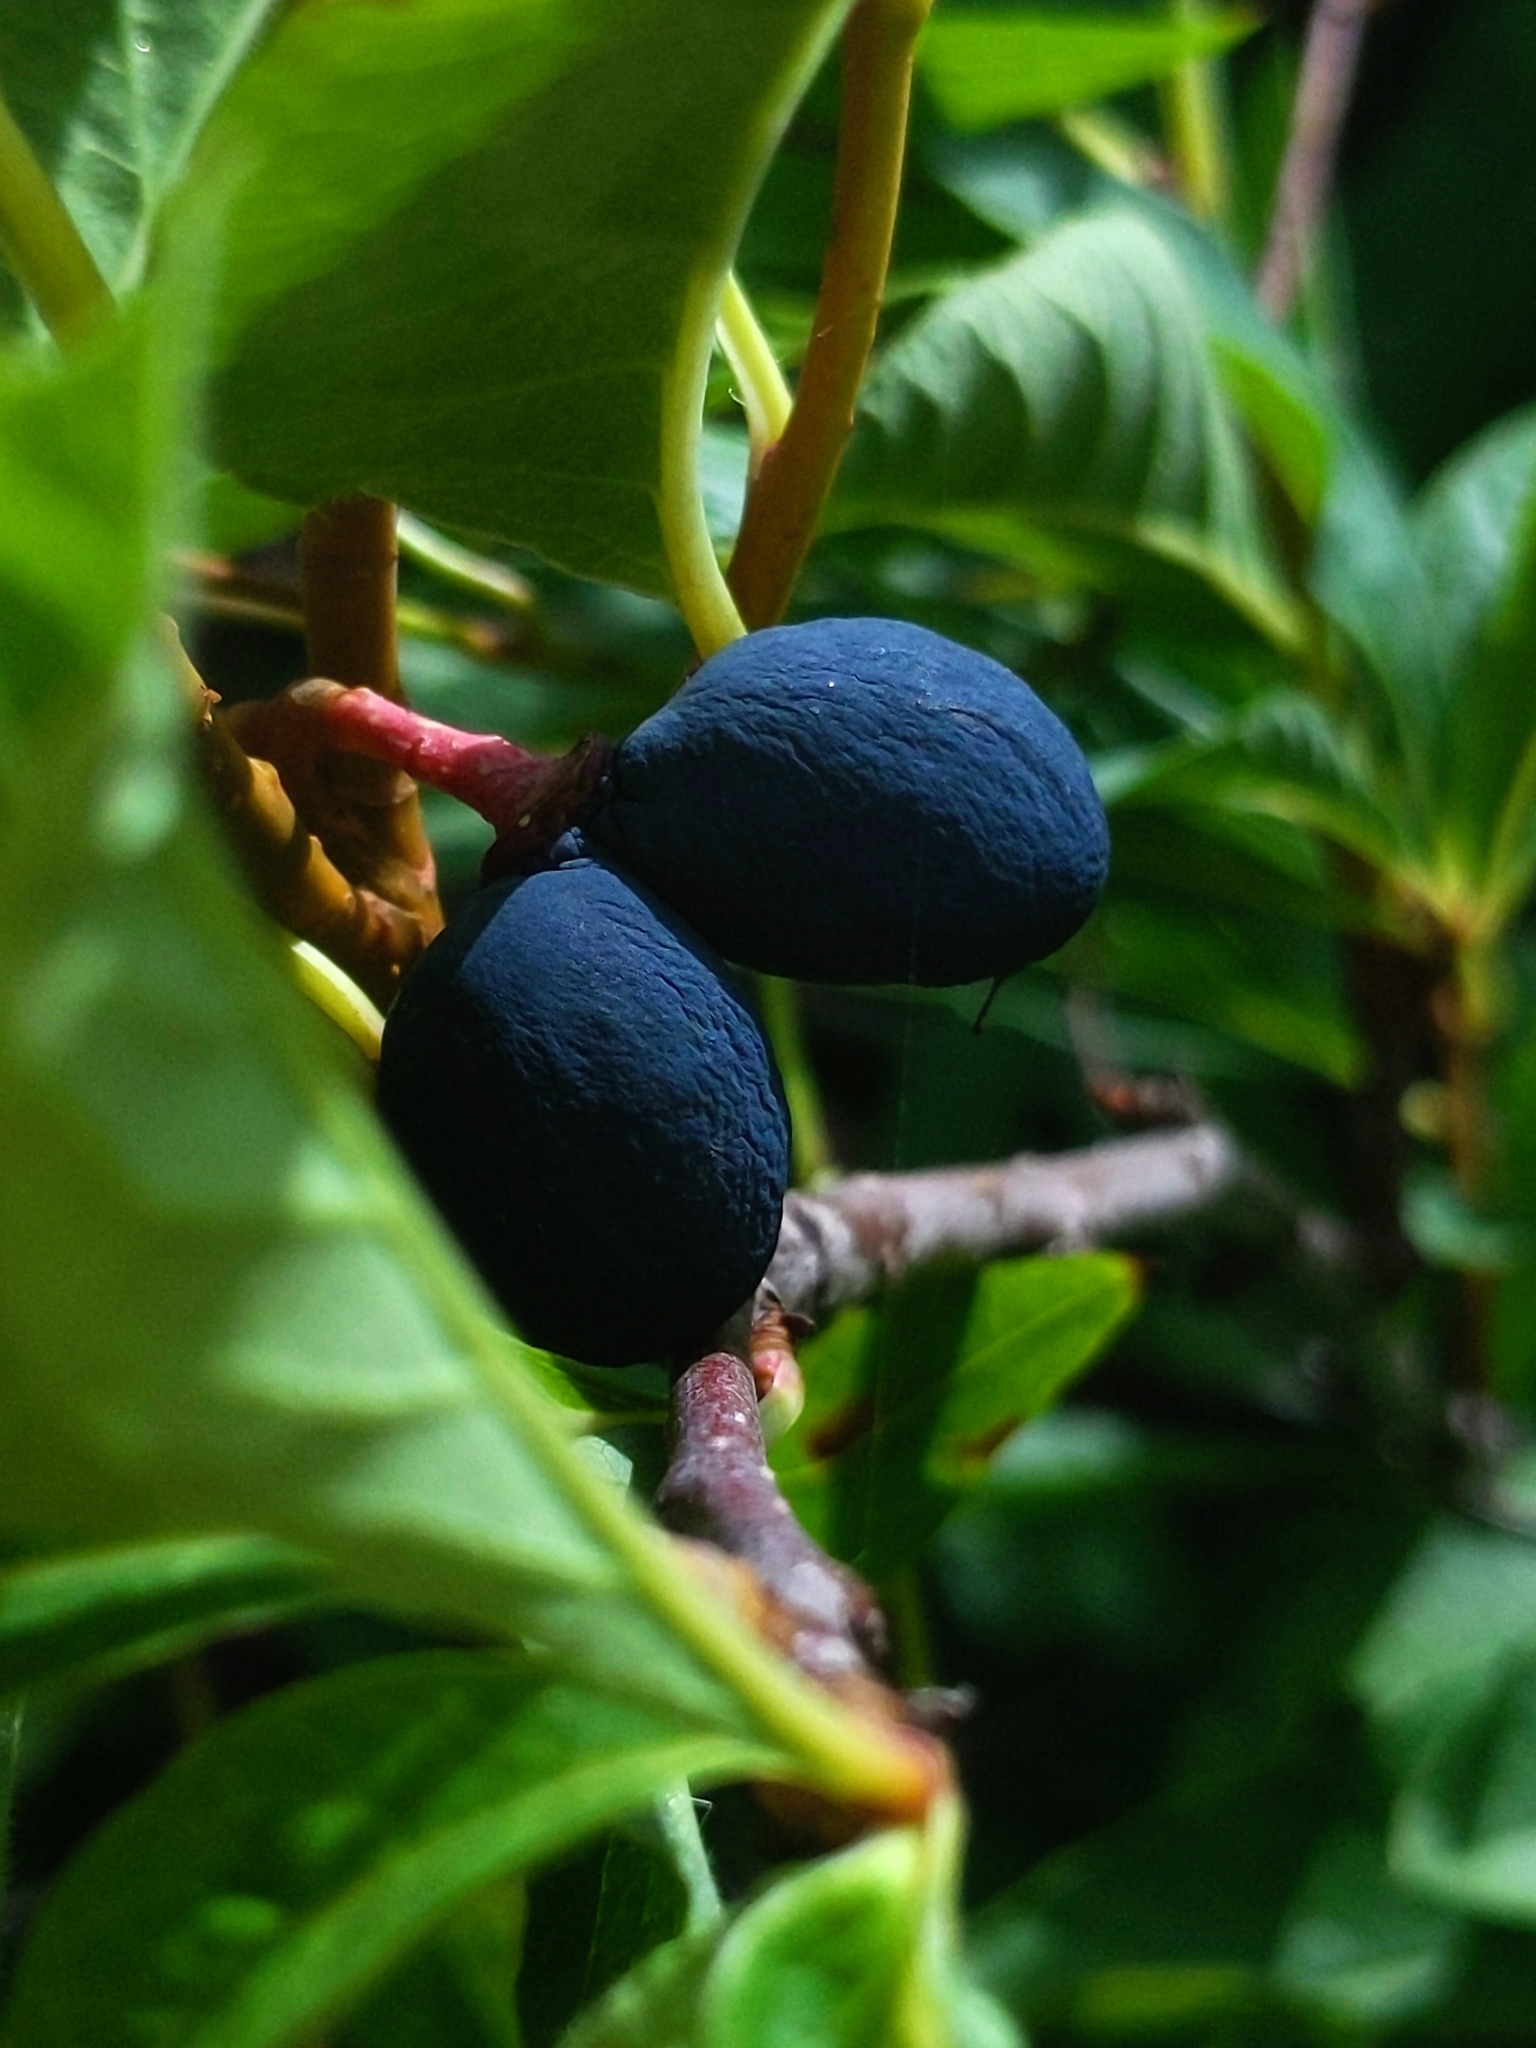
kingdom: Plantae
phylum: Tracheophyta
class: Magnoliopsida
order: Rosales
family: Rosaceae
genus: Oemleria
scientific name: Oemleria cerasiformis
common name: Osoberry
